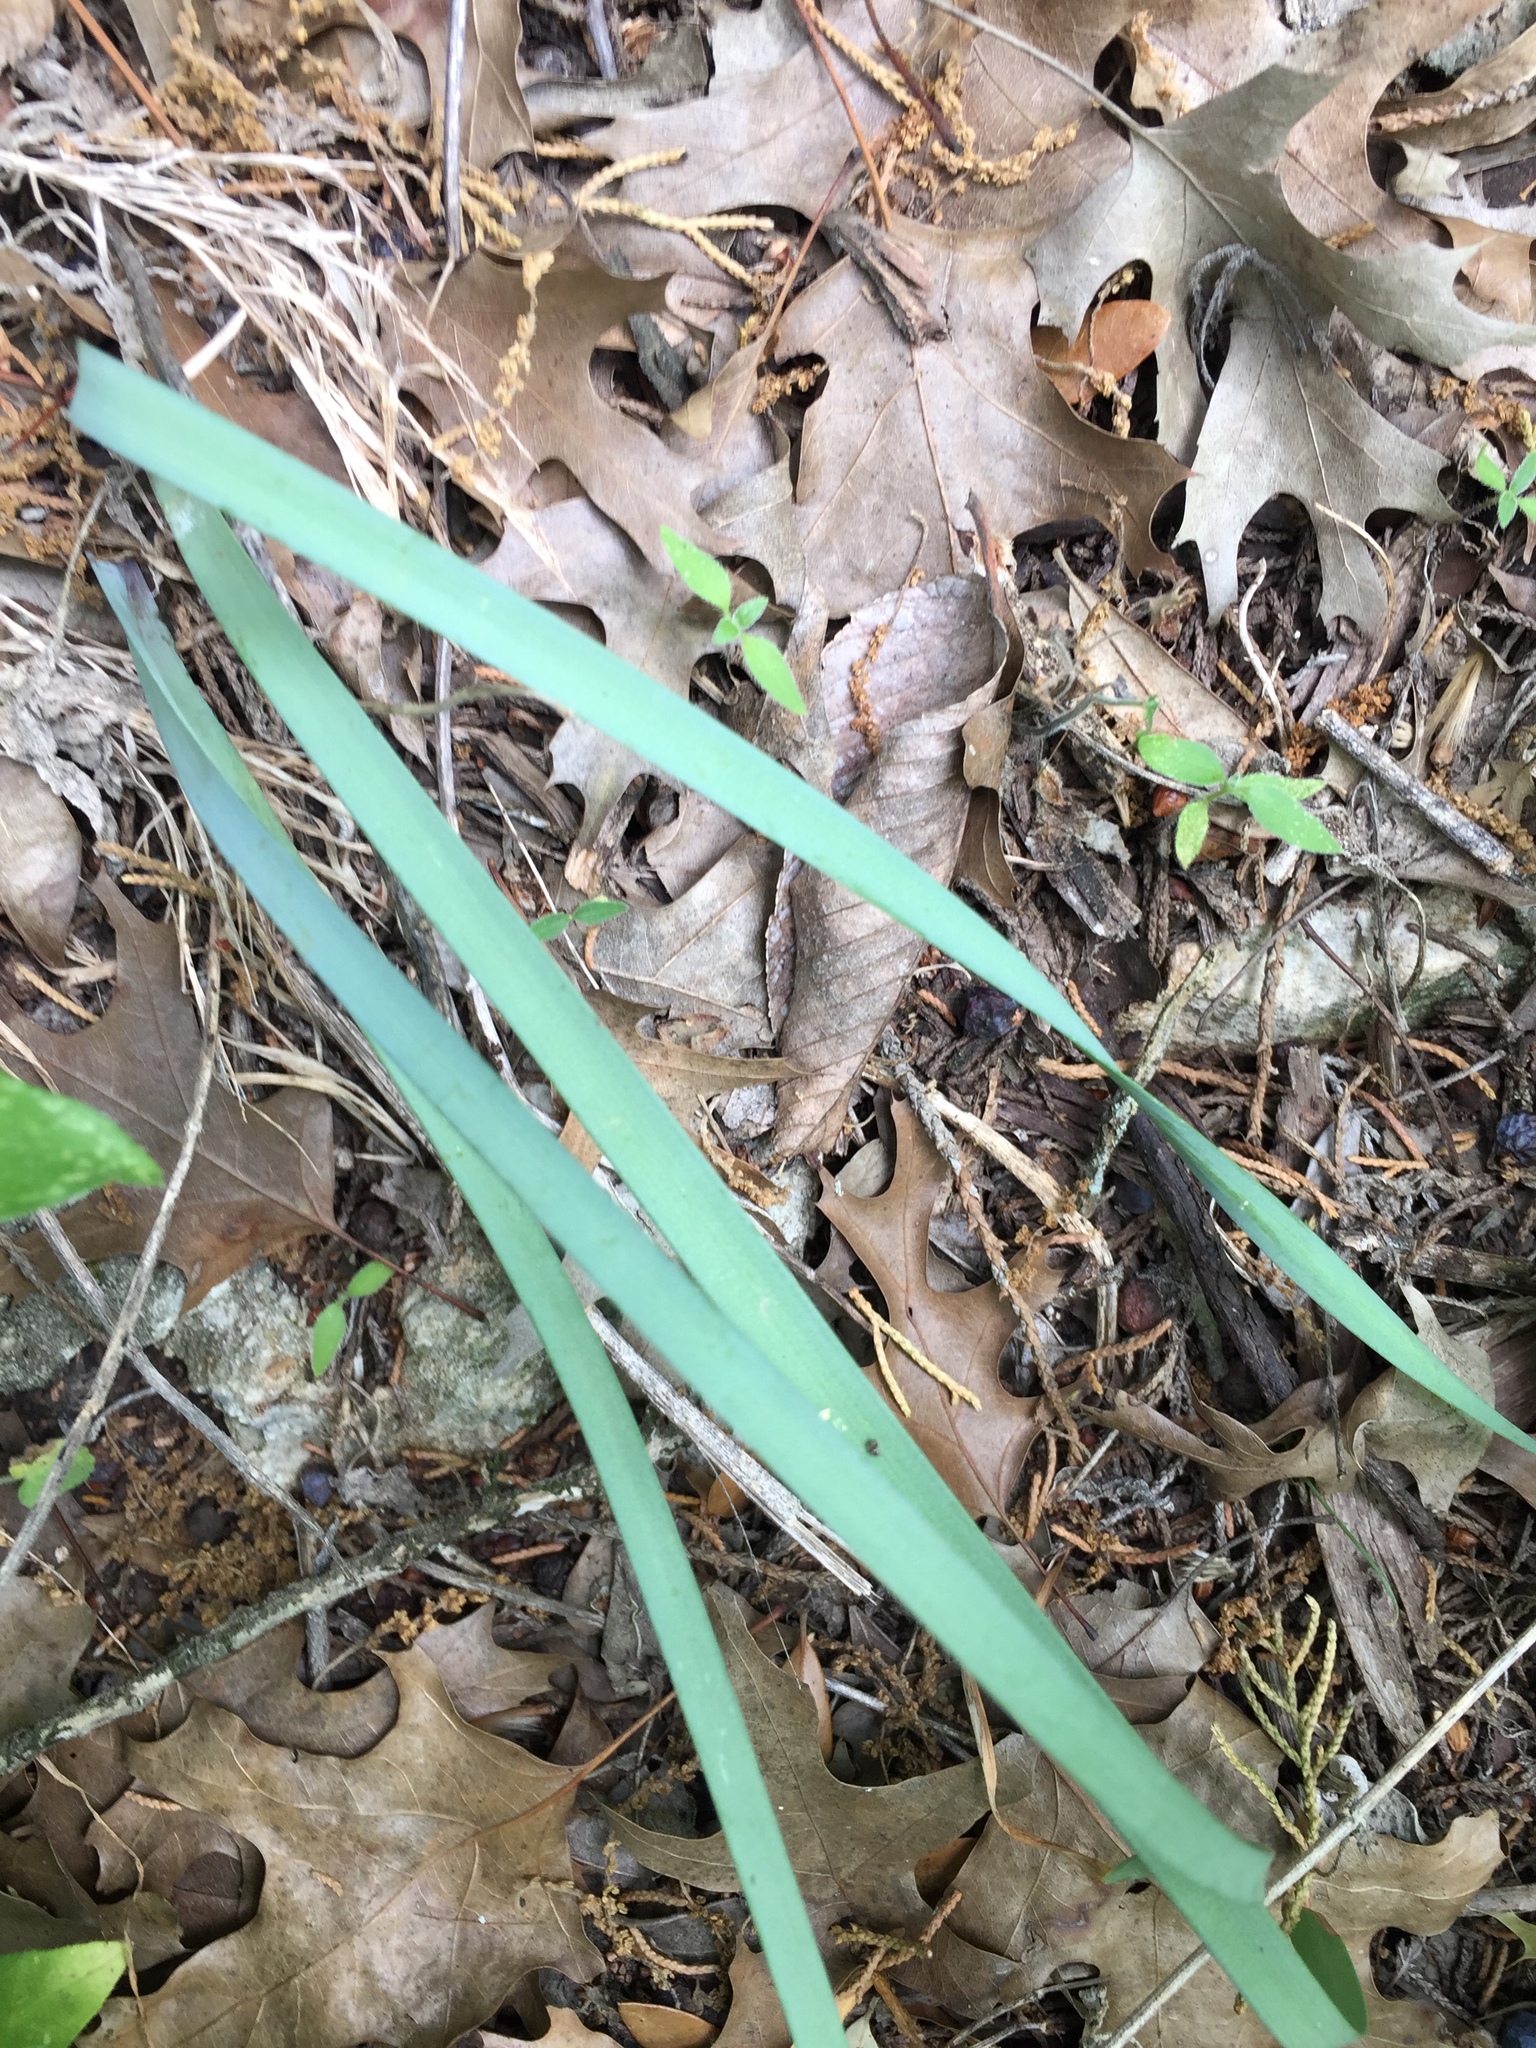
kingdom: Plantae
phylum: Tracheophyta
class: Liliopsida
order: Asparagales
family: Amaryllidaceae
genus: Zephyranthes
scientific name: Zephyranthes drummondii
